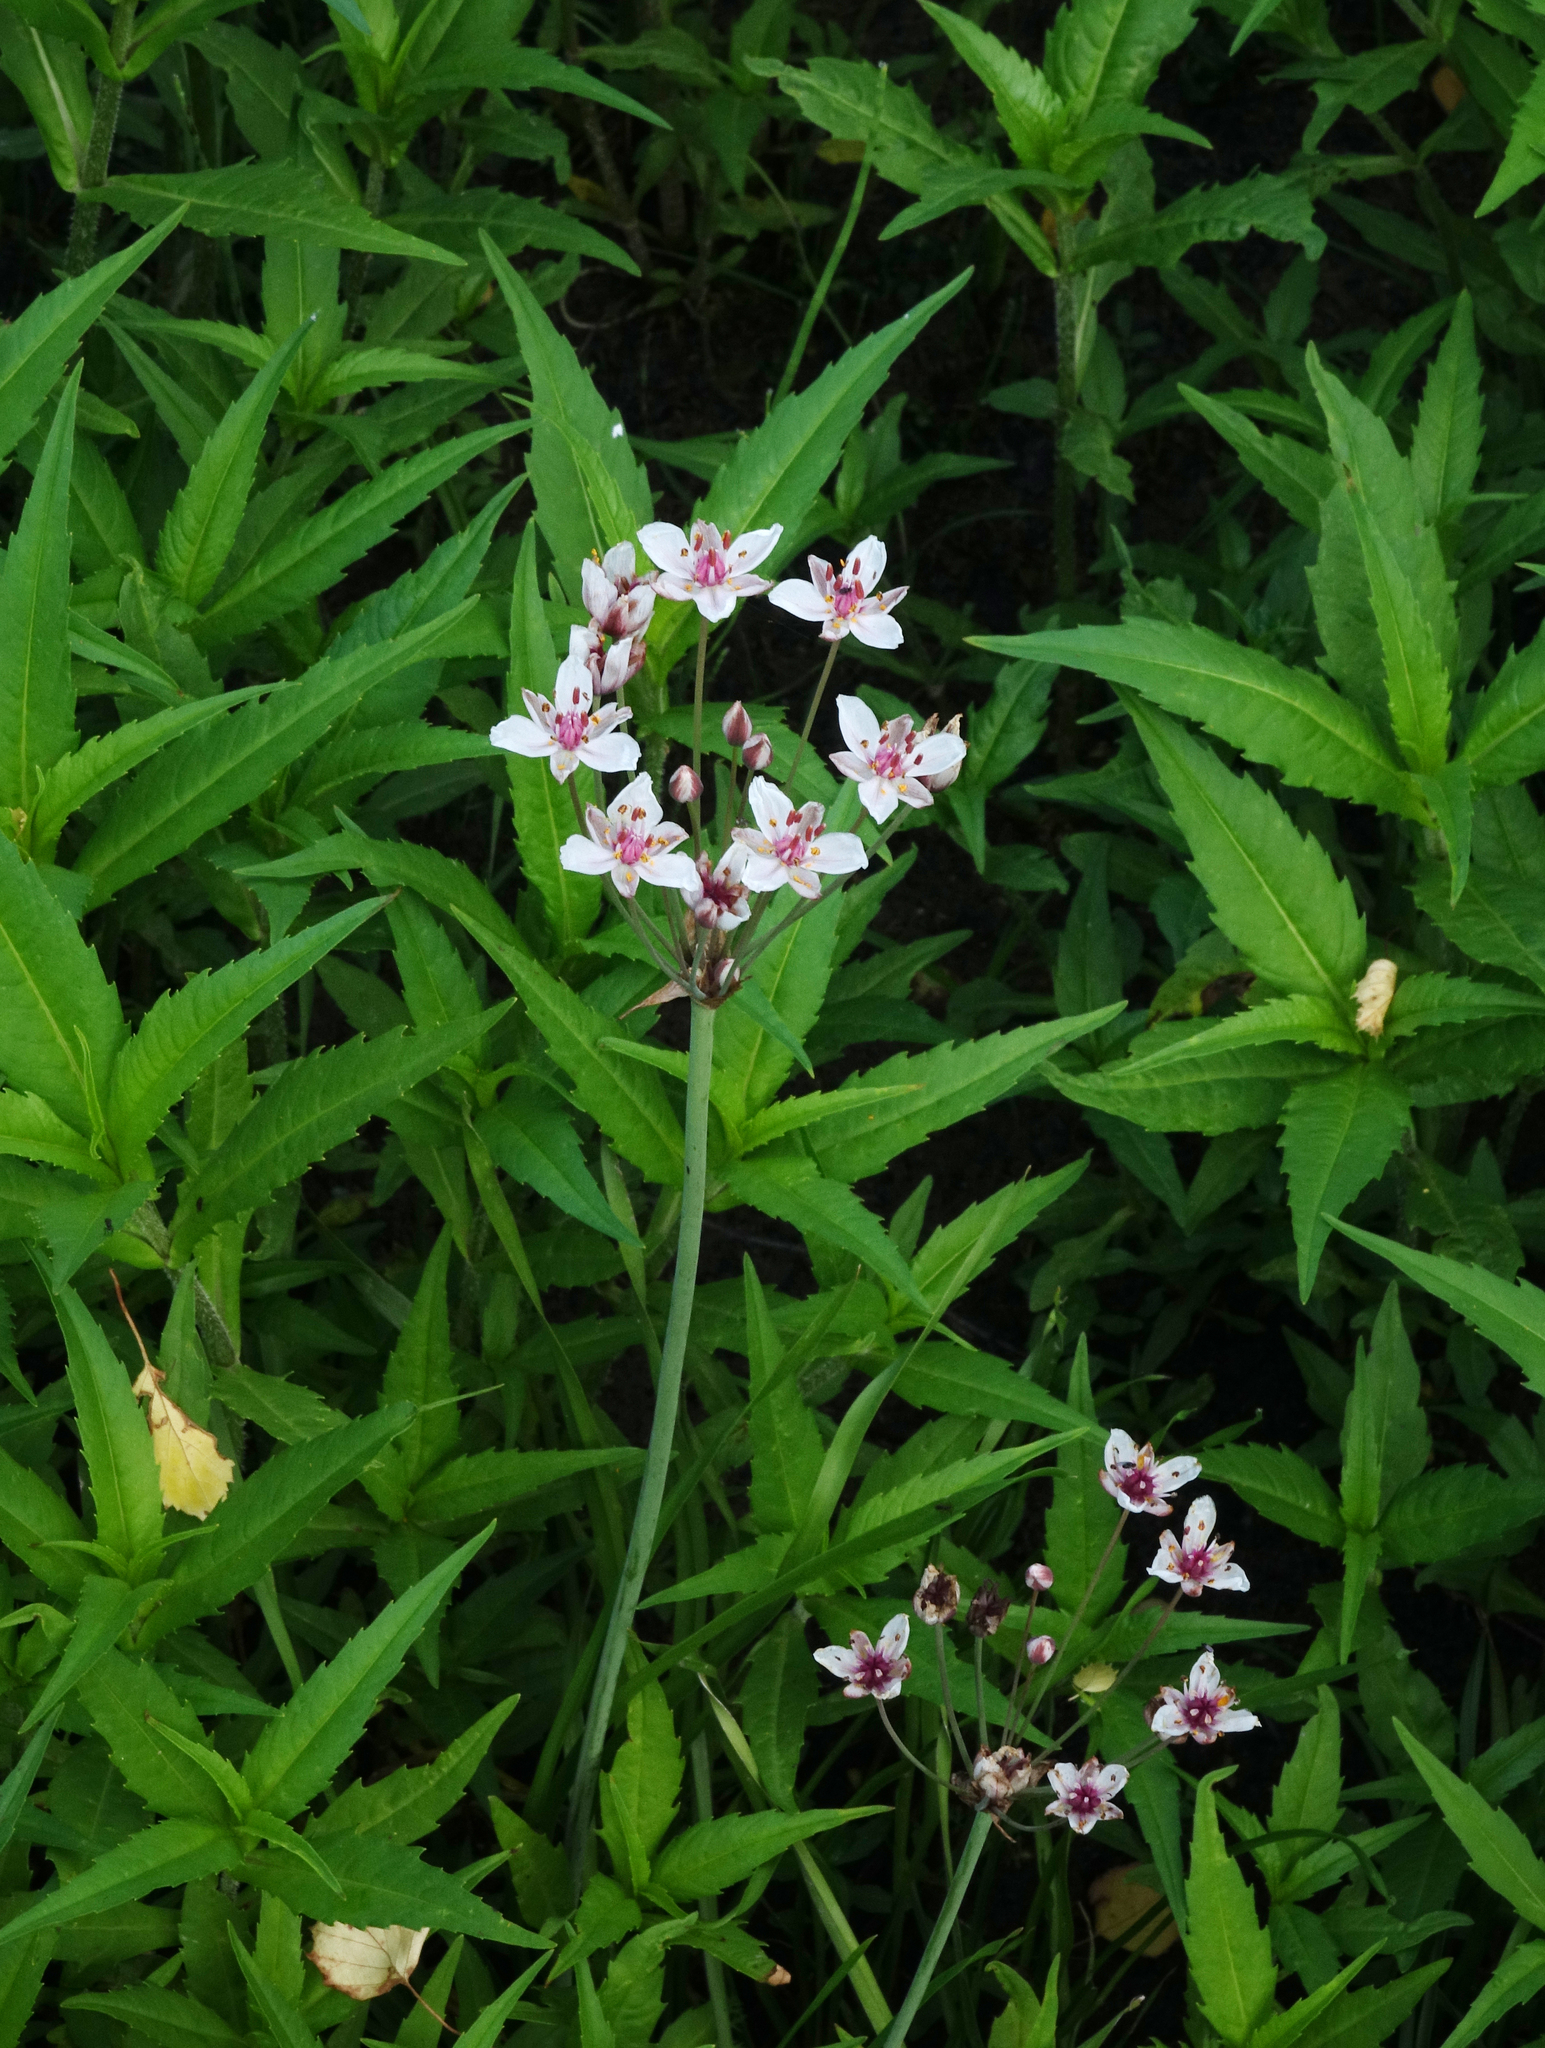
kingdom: Plantae
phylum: Tracheophyta
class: Liliopsida
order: Alismatales
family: Butomaceae
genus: Butomus
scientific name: Butomus umbellatus
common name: Flowering-rush
